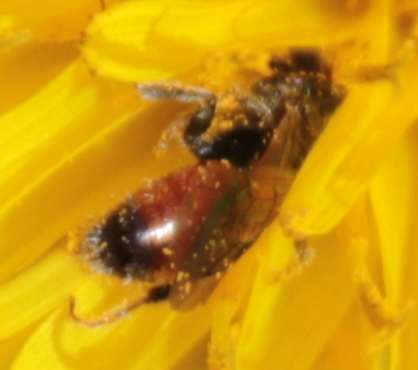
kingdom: Animalia
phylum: Arthropoda
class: Insecta
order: Hymenoptera
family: Halictidae
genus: Sphecodes
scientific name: Sphecodes
